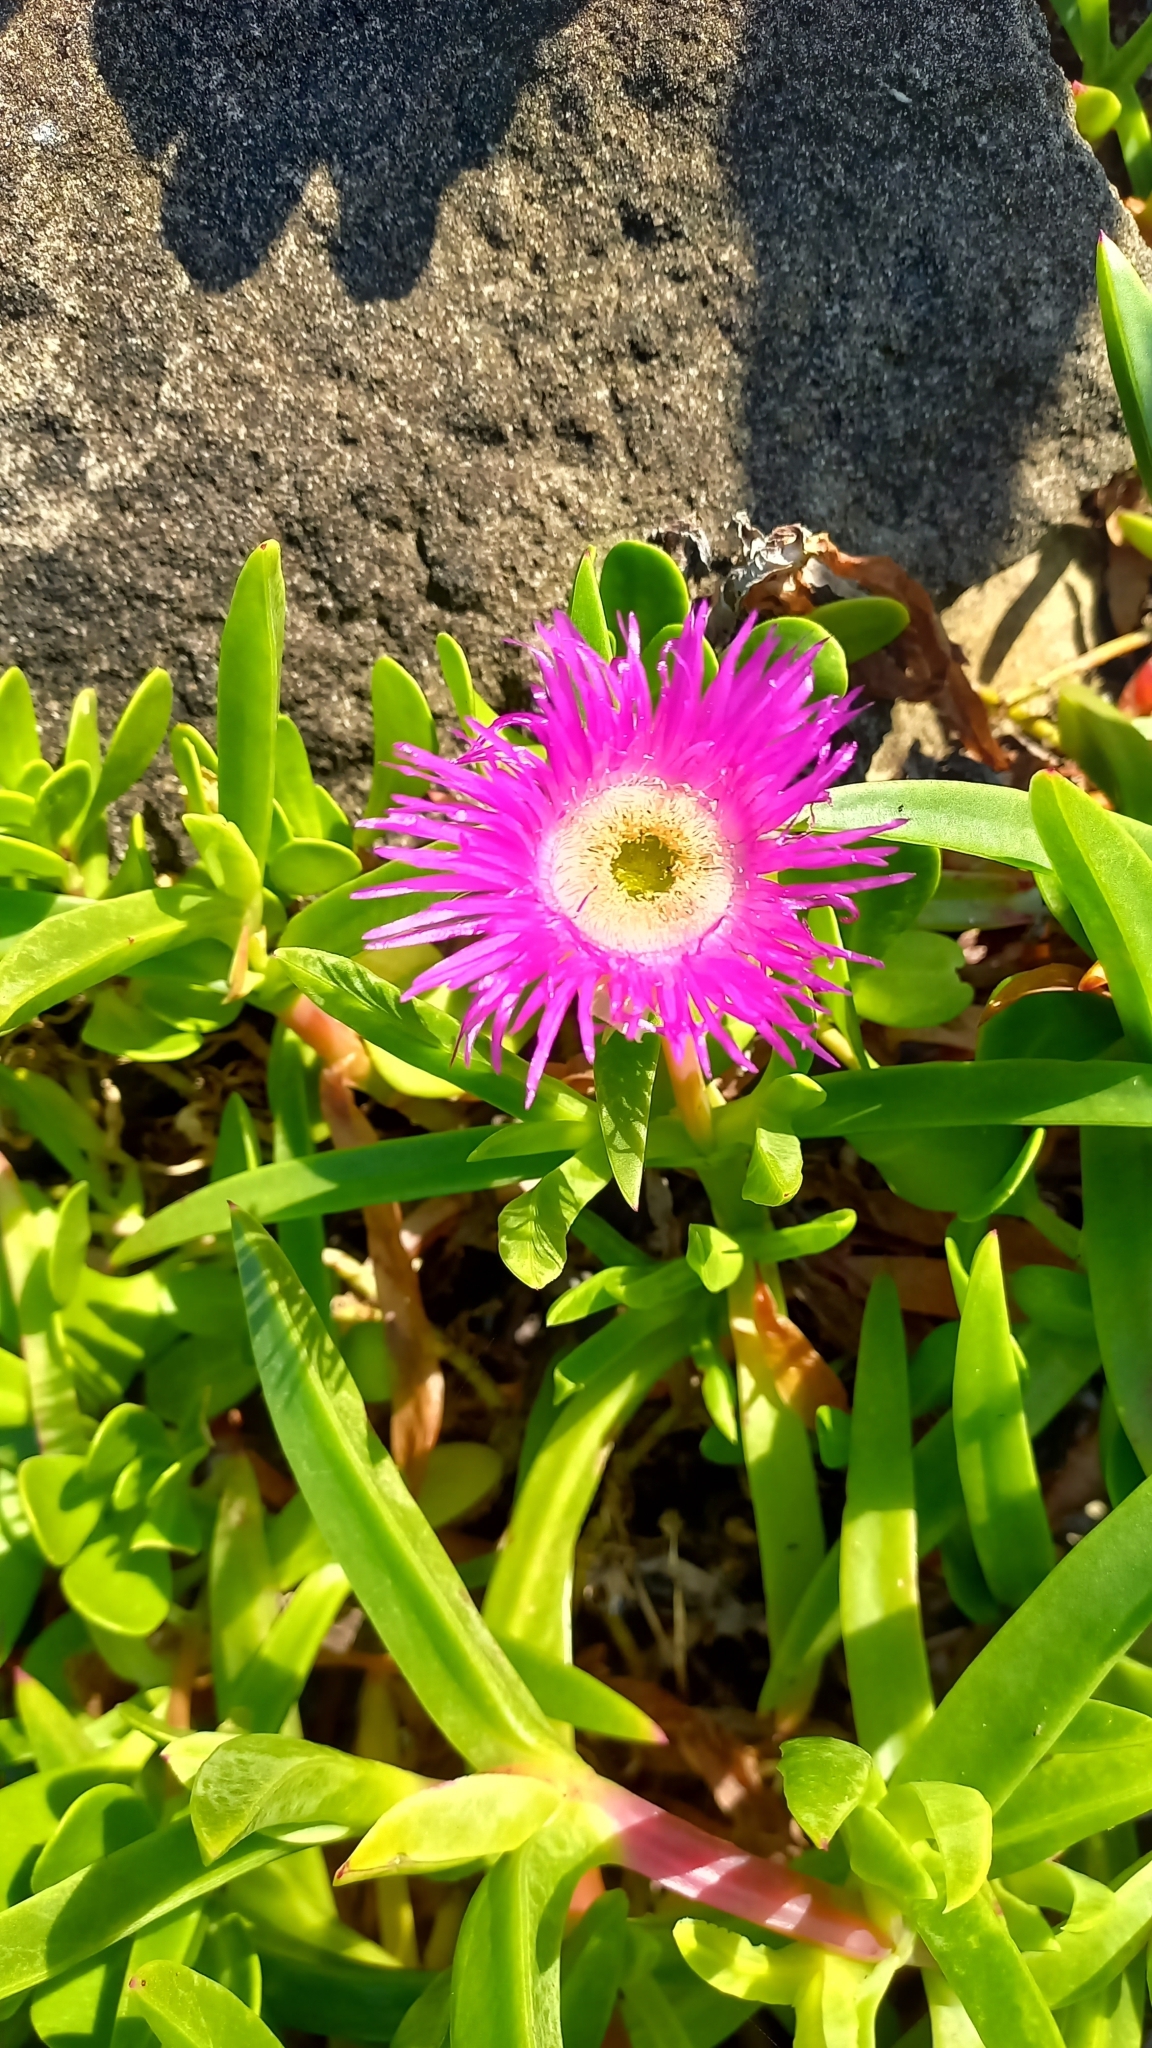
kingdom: Plantae
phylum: Tracheophyta
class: Magnoliopsida
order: Caryophyllales
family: Aizoaceae
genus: Carpobrotus
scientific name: Carpobrotus dimidiatus
